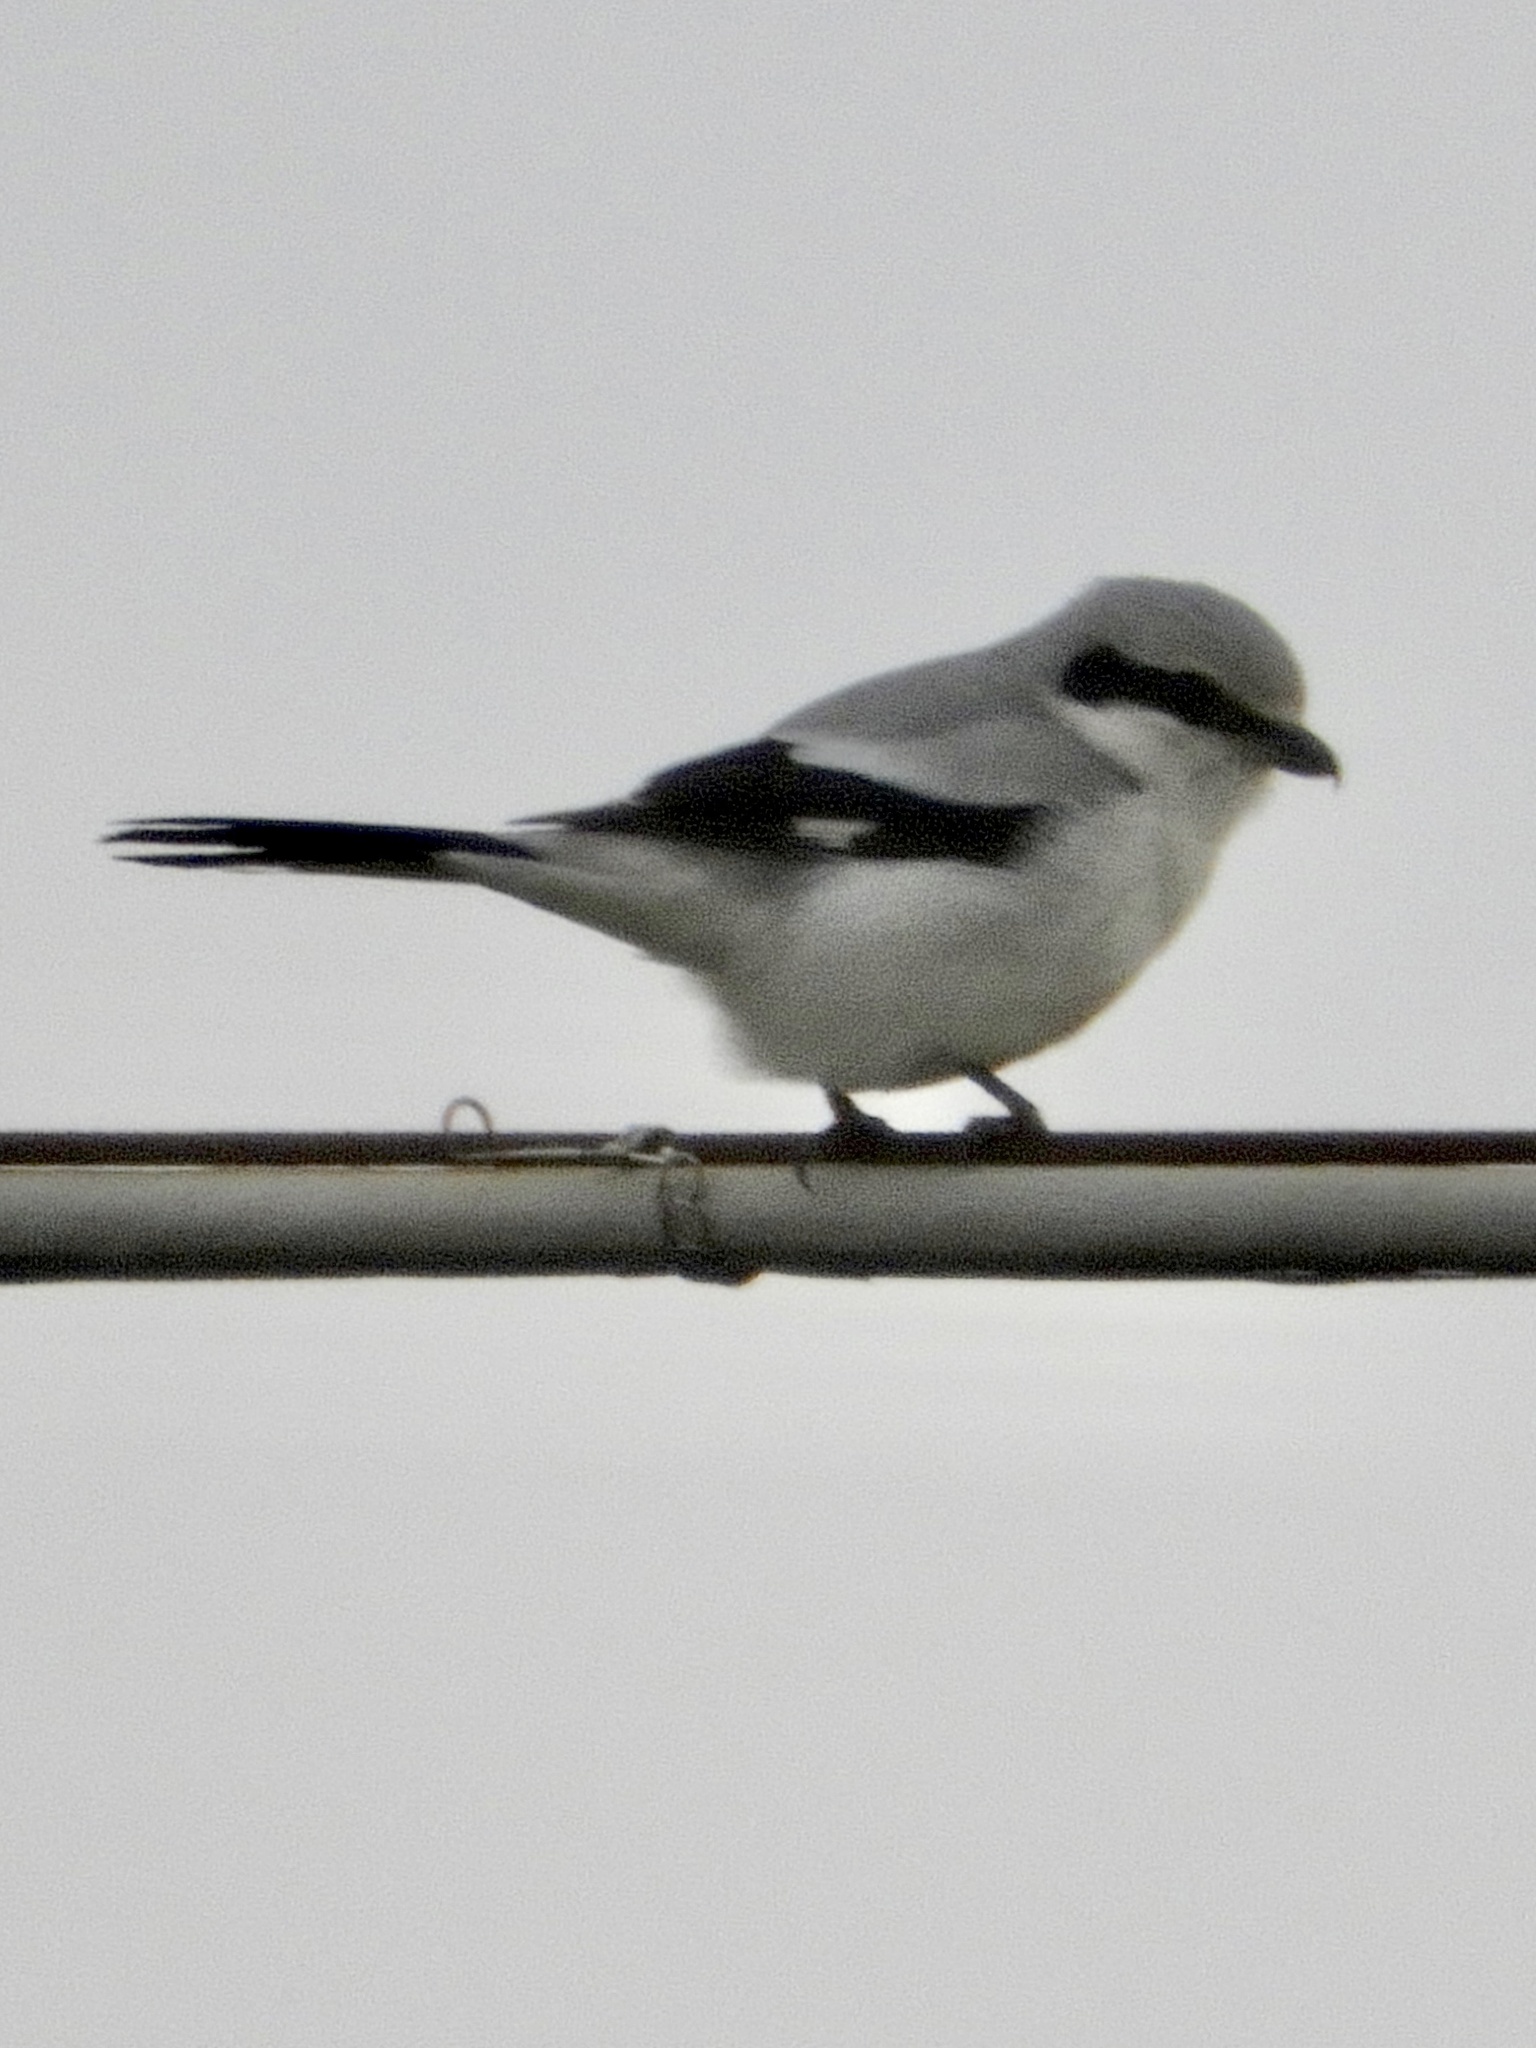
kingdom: Animalia
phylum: Chordata
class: Aves
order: Passeriformes
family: Laniidae
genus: Lanius
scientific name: Lanius excubitor
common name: Great grey shrike
